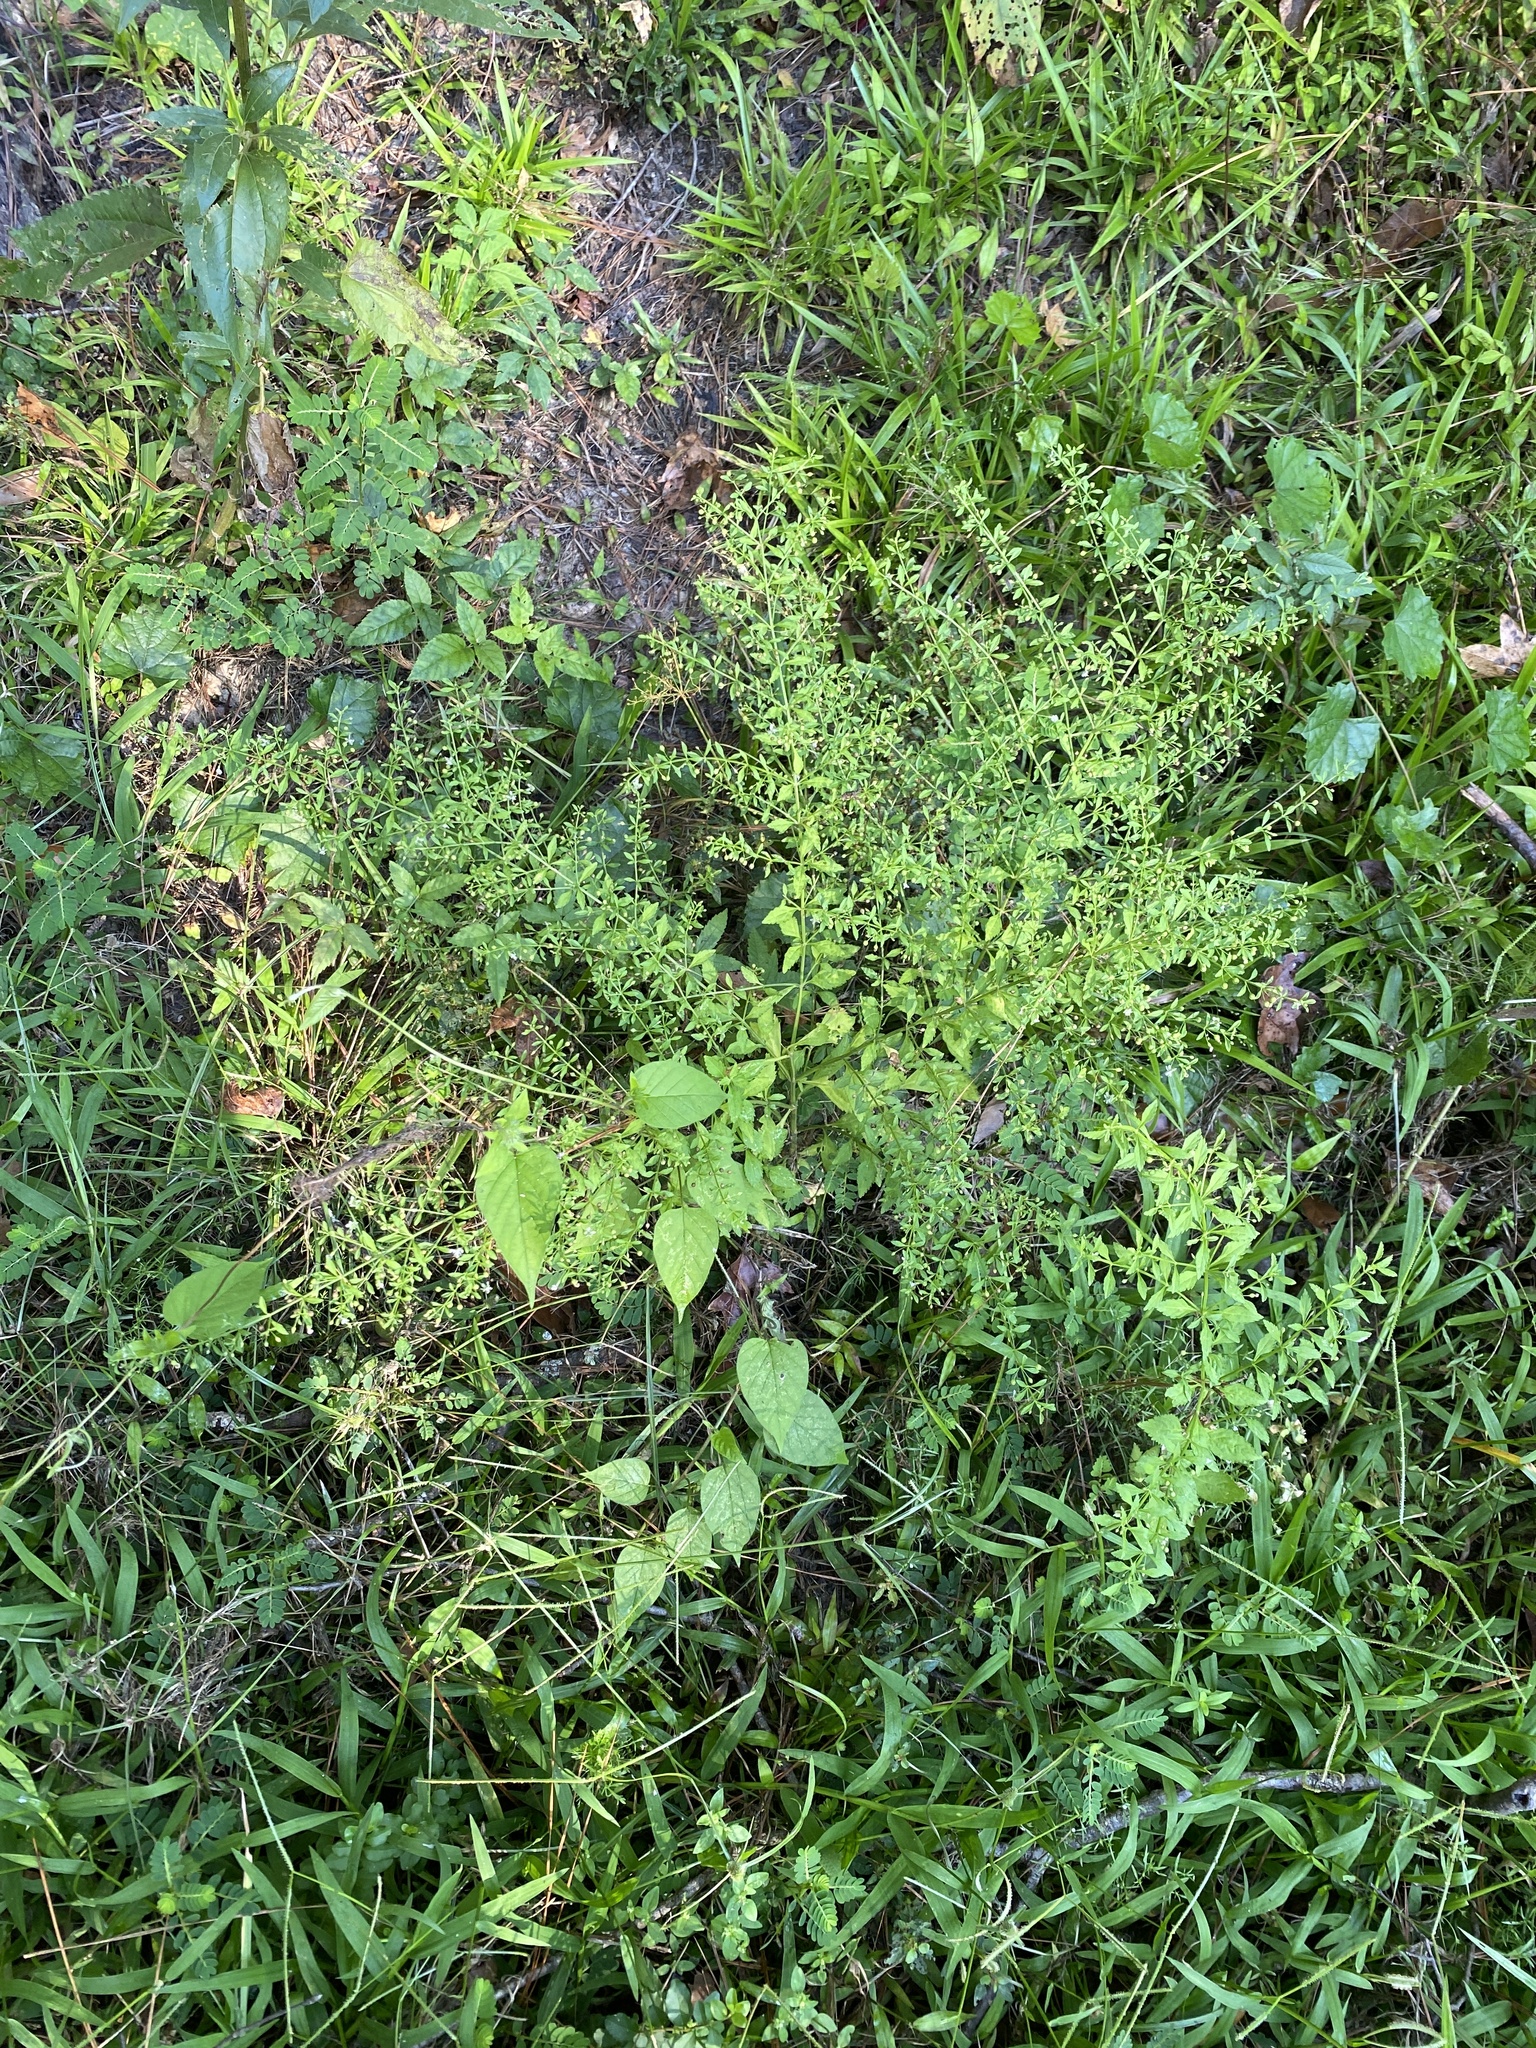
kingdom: Plantae
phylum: Tracheophyta
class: Magnoliopsida
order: Lamiales
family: Plantaginaceae
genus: Scoparia
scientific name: Scoparia dulcis
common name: Scoparia-weed
